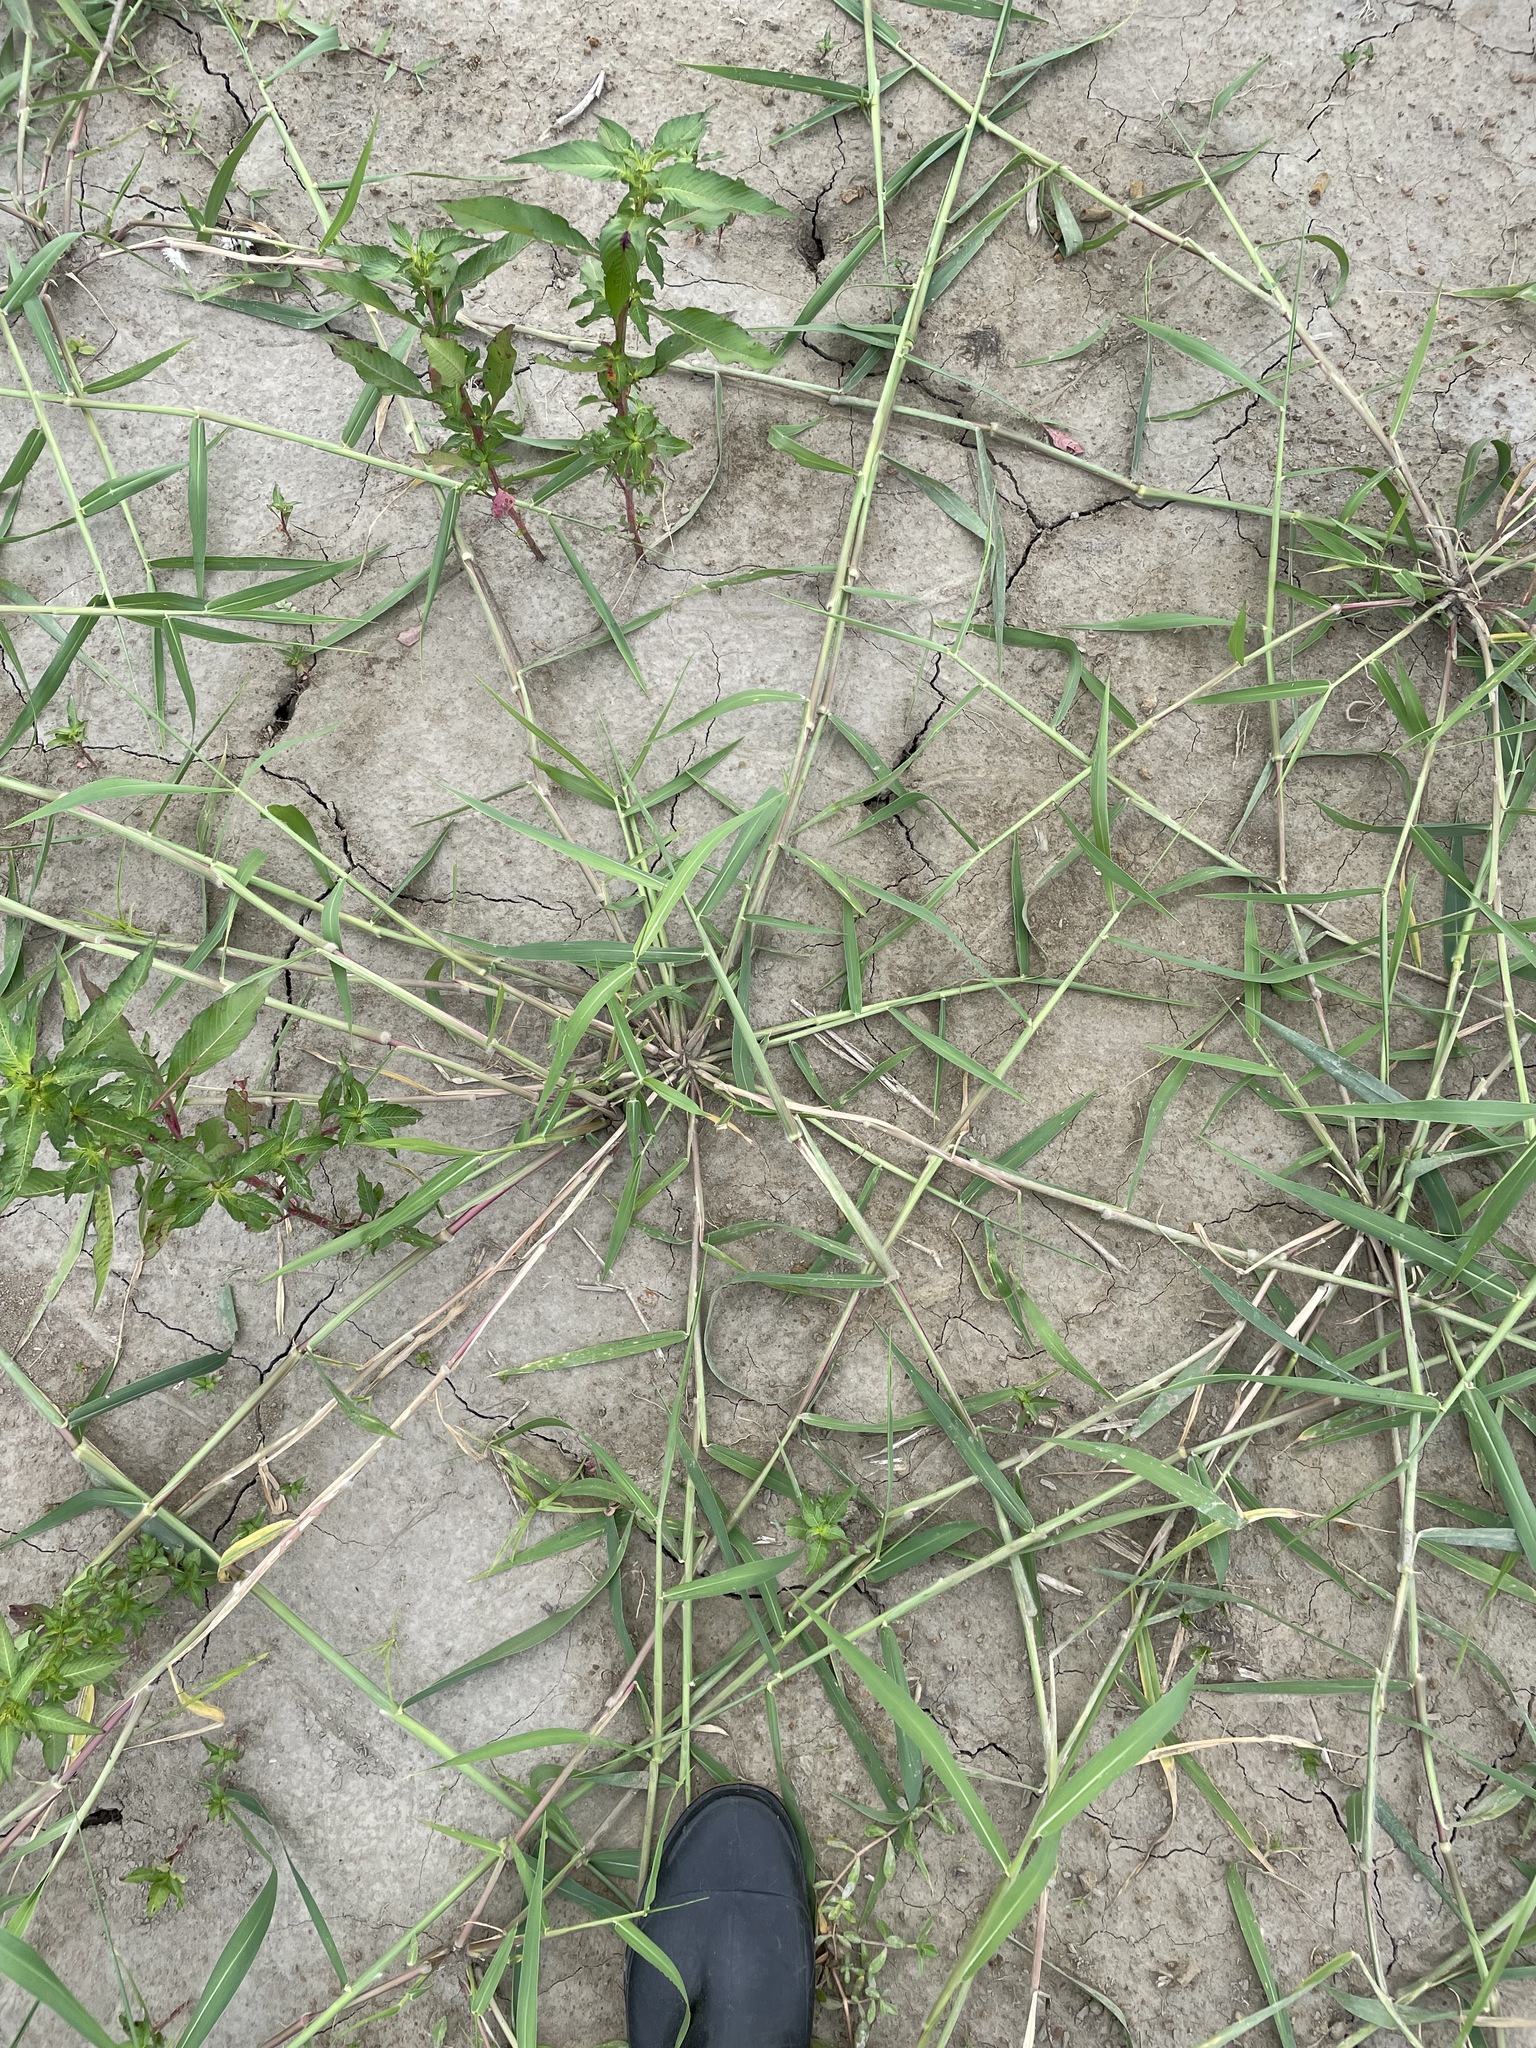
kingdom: Plantae
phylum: Tracheophyta
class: Liliopsida
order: Poales
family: Poaceae
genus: Urochloa
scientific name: Urochloa mutica
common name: Para grass
